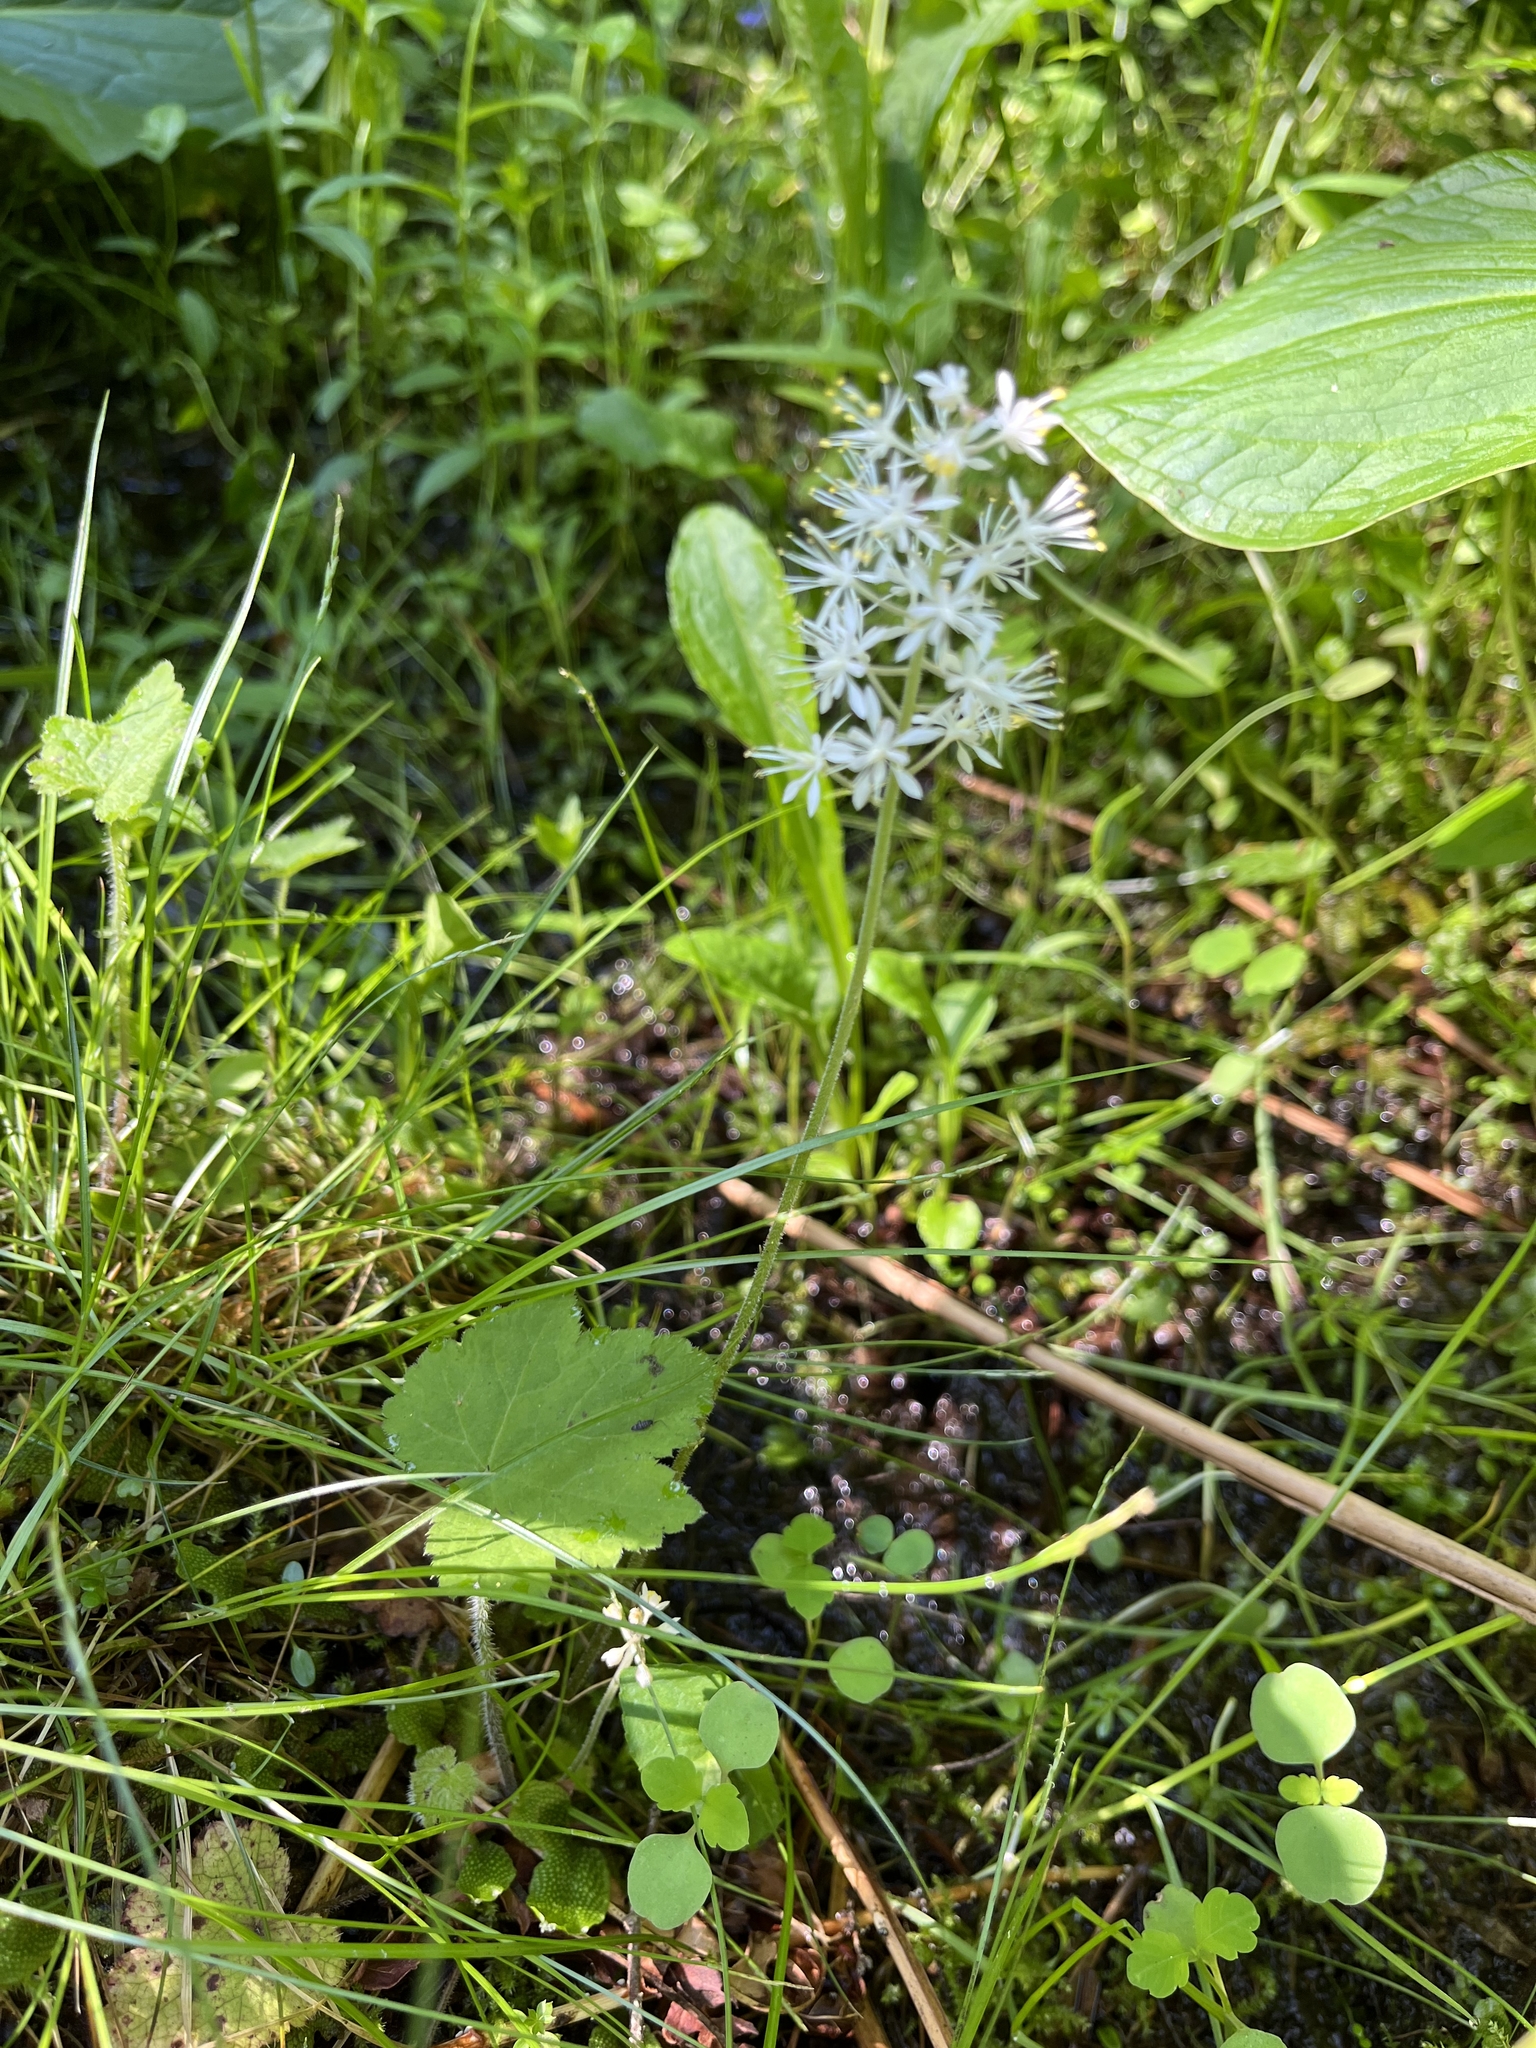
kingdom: Plantae
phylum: Tracheophyta
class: Magnoliopsida
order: Saxifragales
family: Saxifragaceae
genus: Tiarella
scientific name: Tiarella stolonifera
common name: Stoloniferous foamflower
